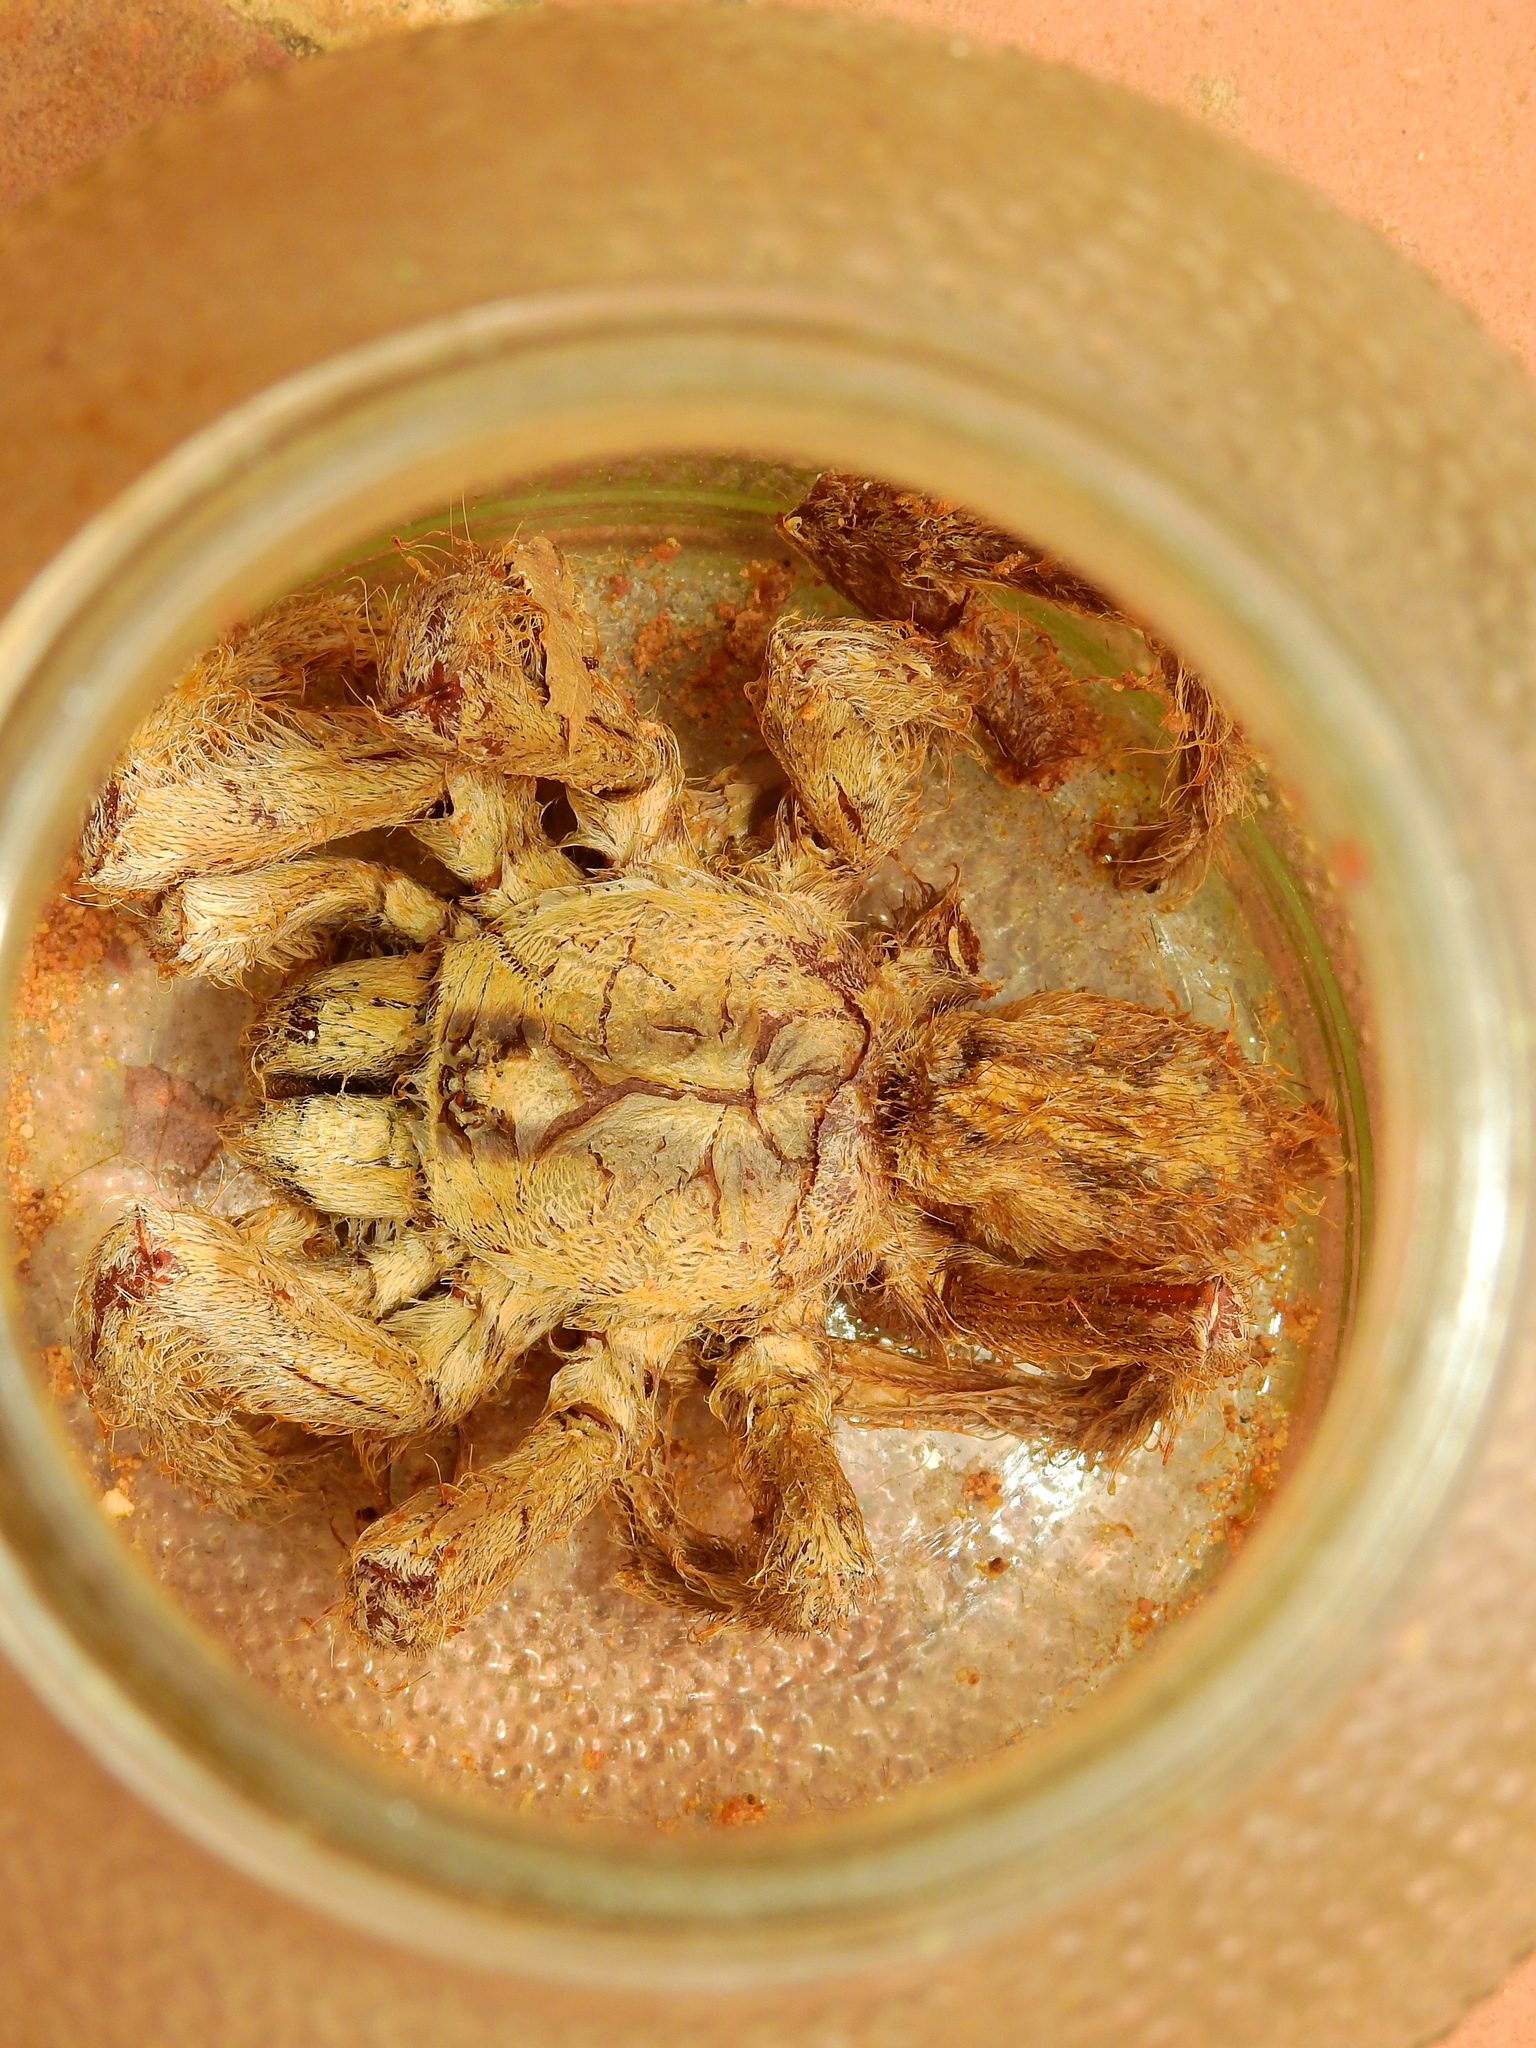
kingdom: Animalia
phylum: Arthropoda
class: Arachnida
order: Araneae
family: Theraphosidae
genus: Poecilotheria
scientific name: Poecilotheria regalis
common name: Indian ornamental
